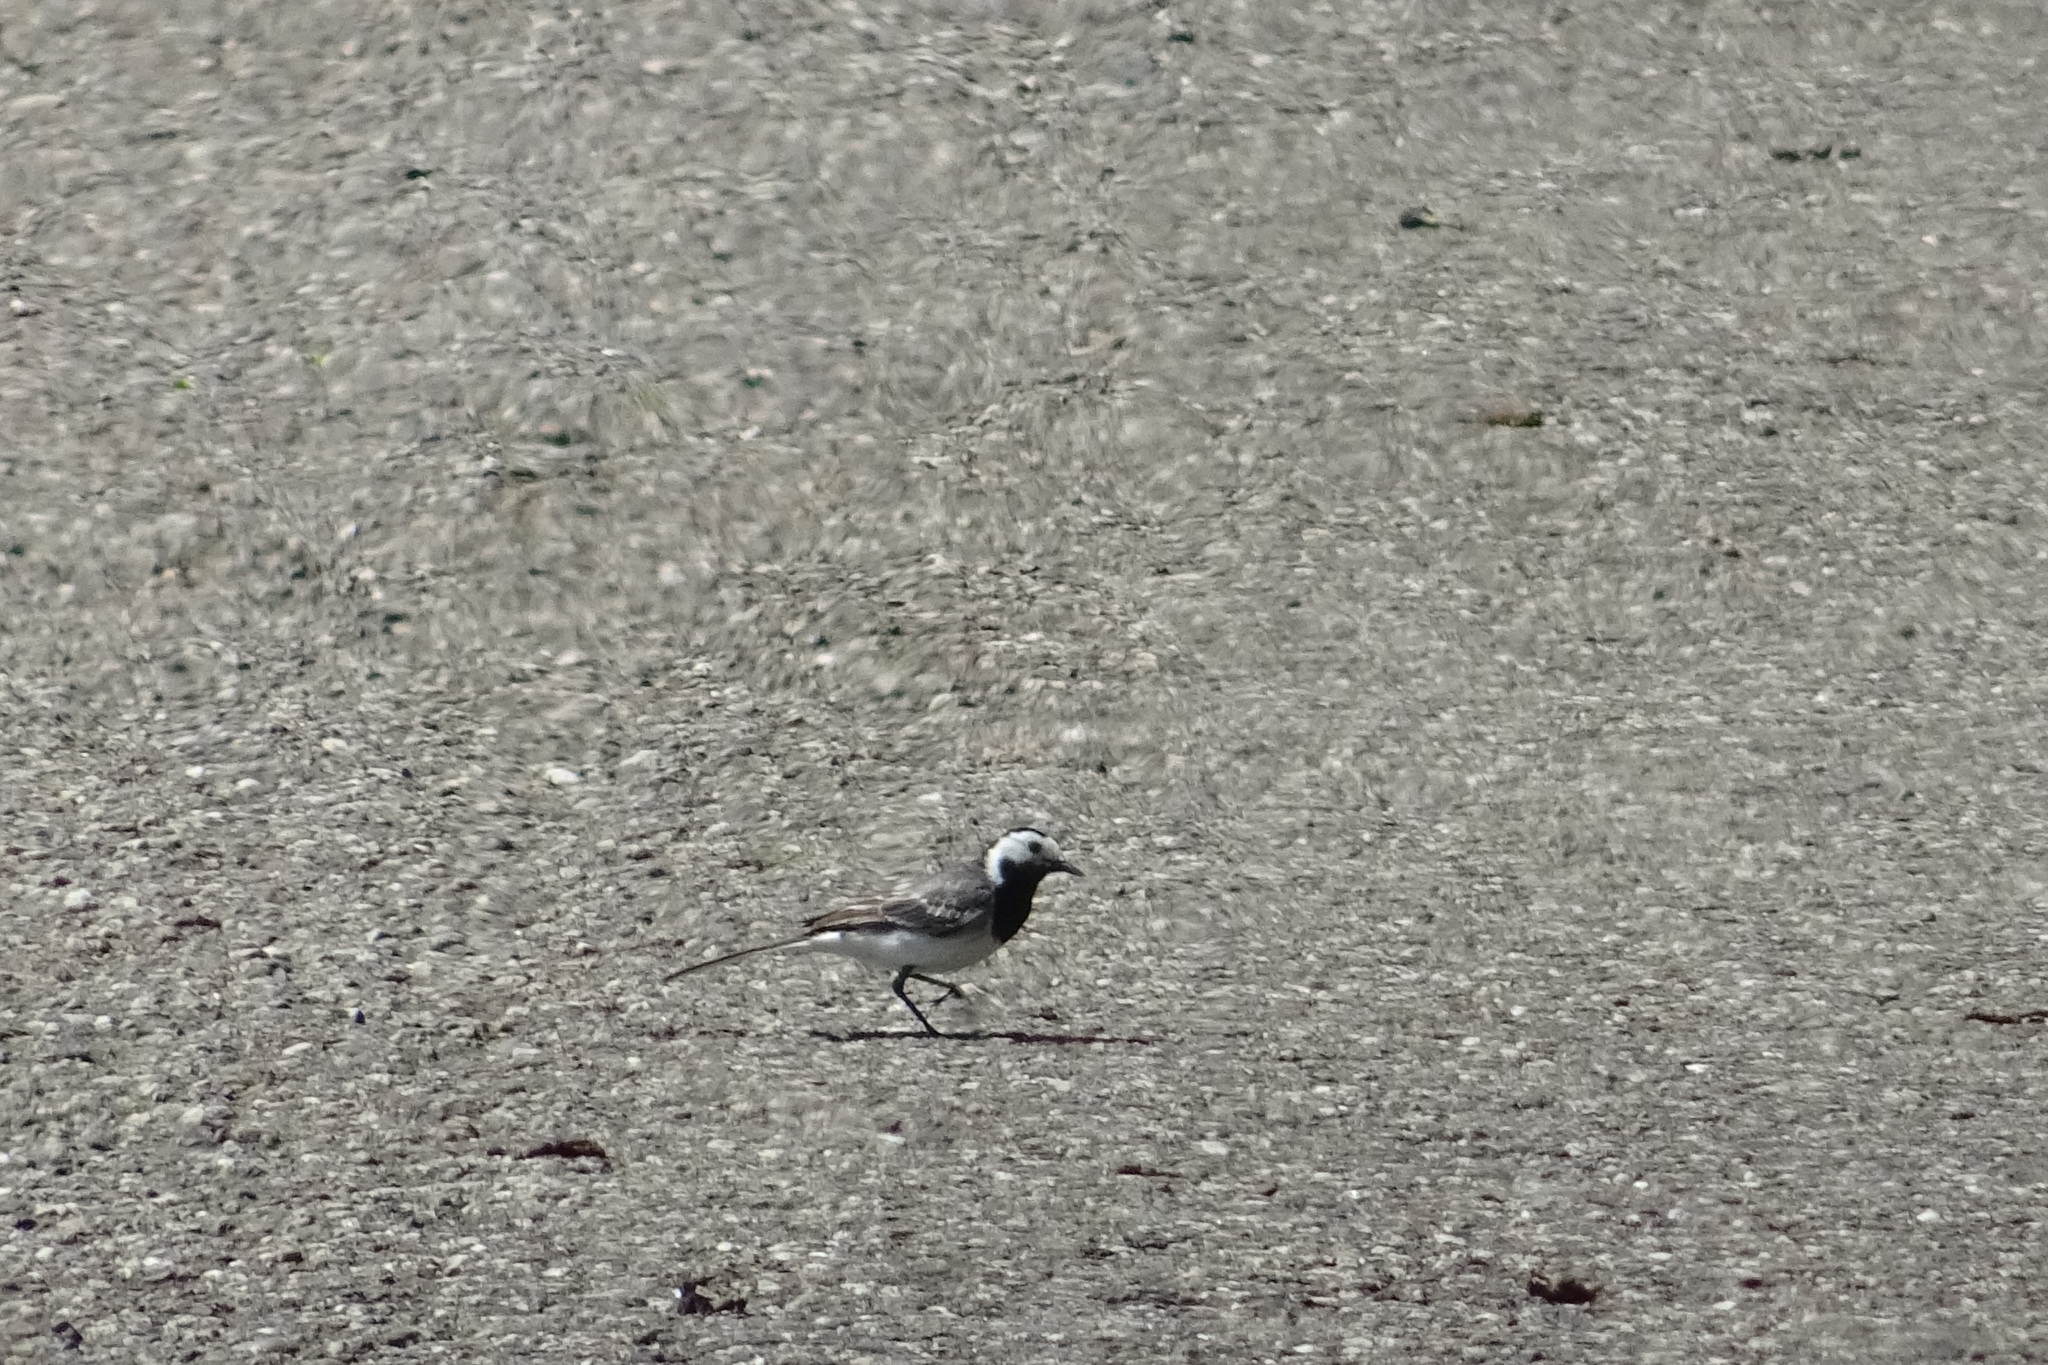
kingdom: Animalia
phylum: Chordata
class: Aves
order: Passeriformes
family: Motacillidae
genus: Motacilla
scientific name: Motacilla alba
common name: White wagtail
